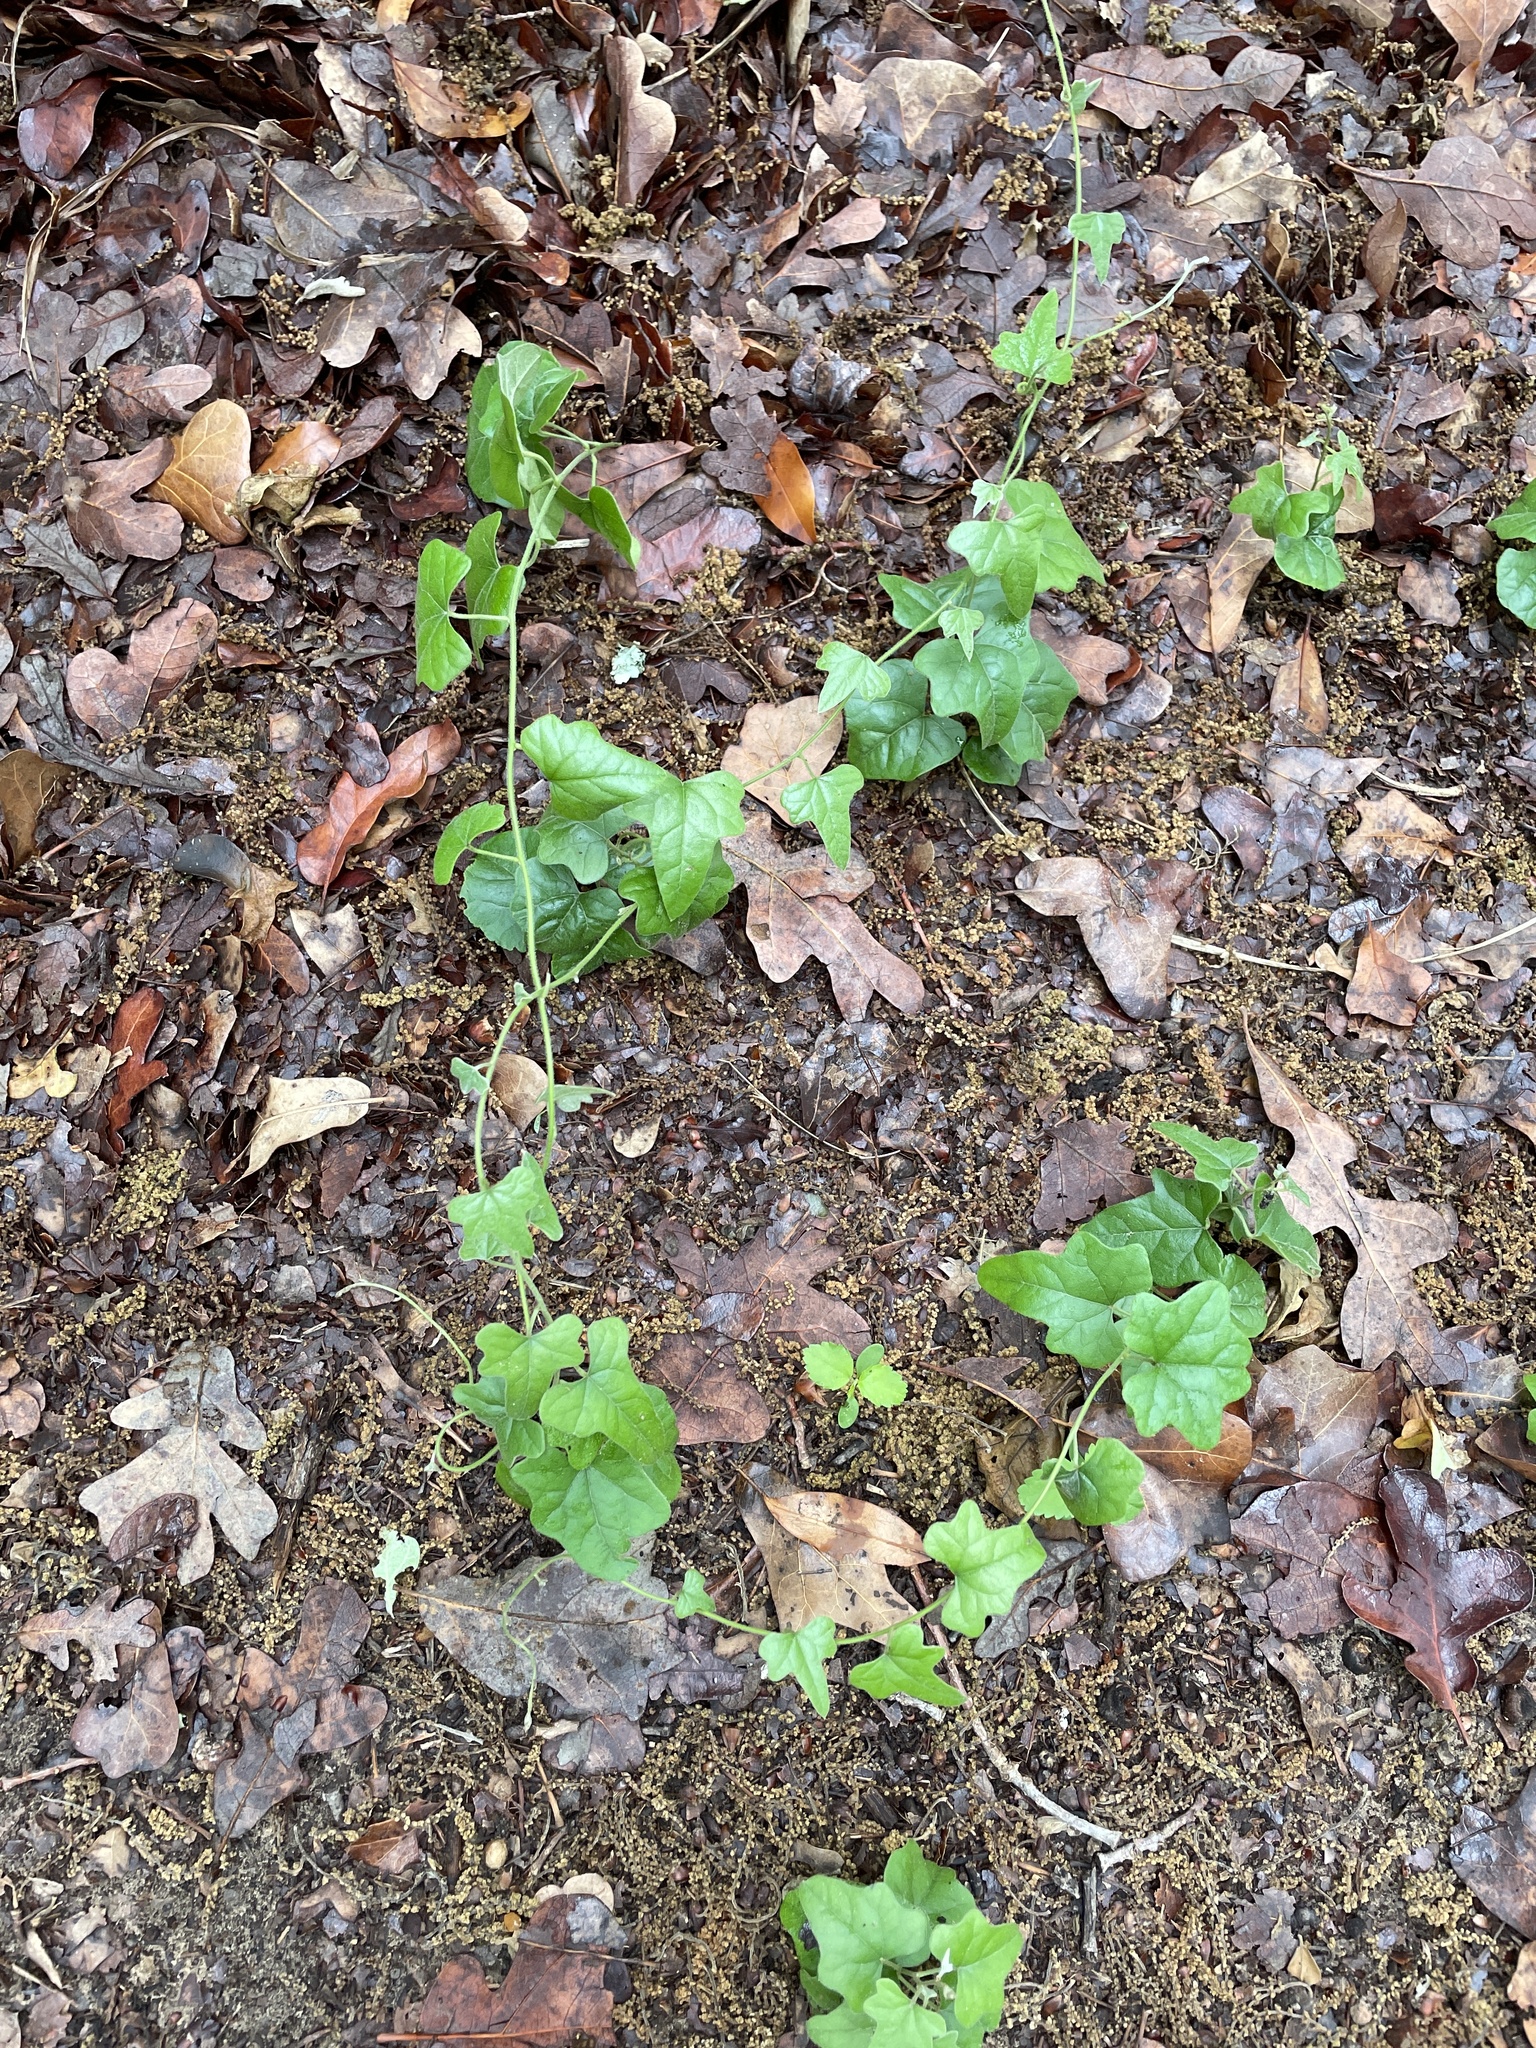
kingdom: Plantae
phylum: Tracheophyta
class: Magnoliopsida
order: Ranunculales
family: Menispermaceae
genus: Cocculus
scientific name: Cocculus carolinus
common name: Carolina moonseed
